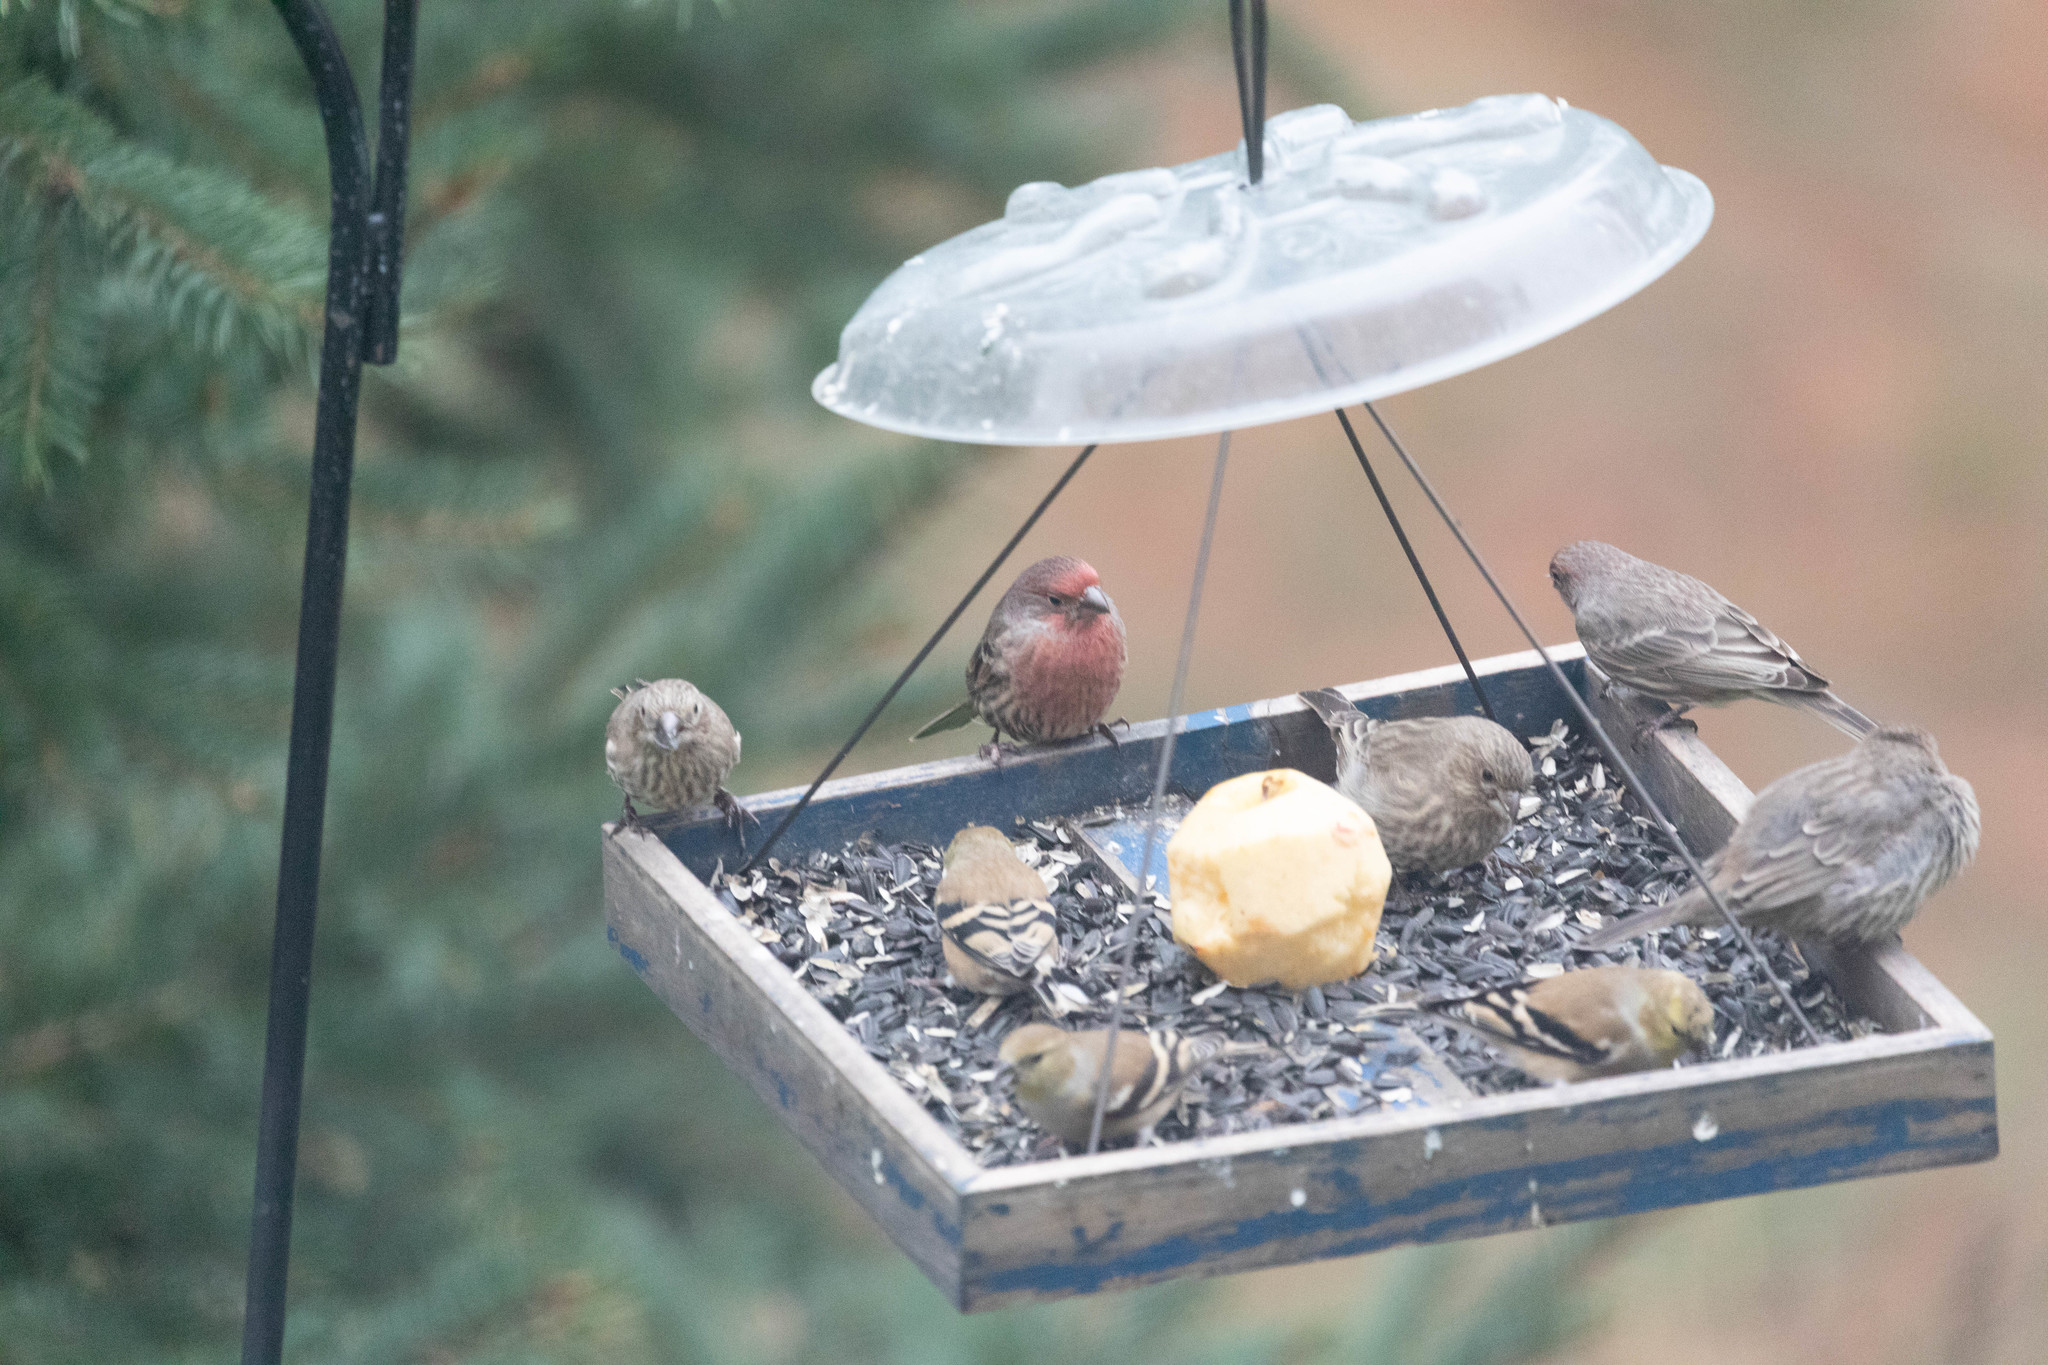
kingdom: Animalia
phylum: Chordata
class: Aves
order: Passeriformes
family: Fringillidae
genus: Haemorhous
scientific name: Haemorhous mexicanus
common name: House finch
